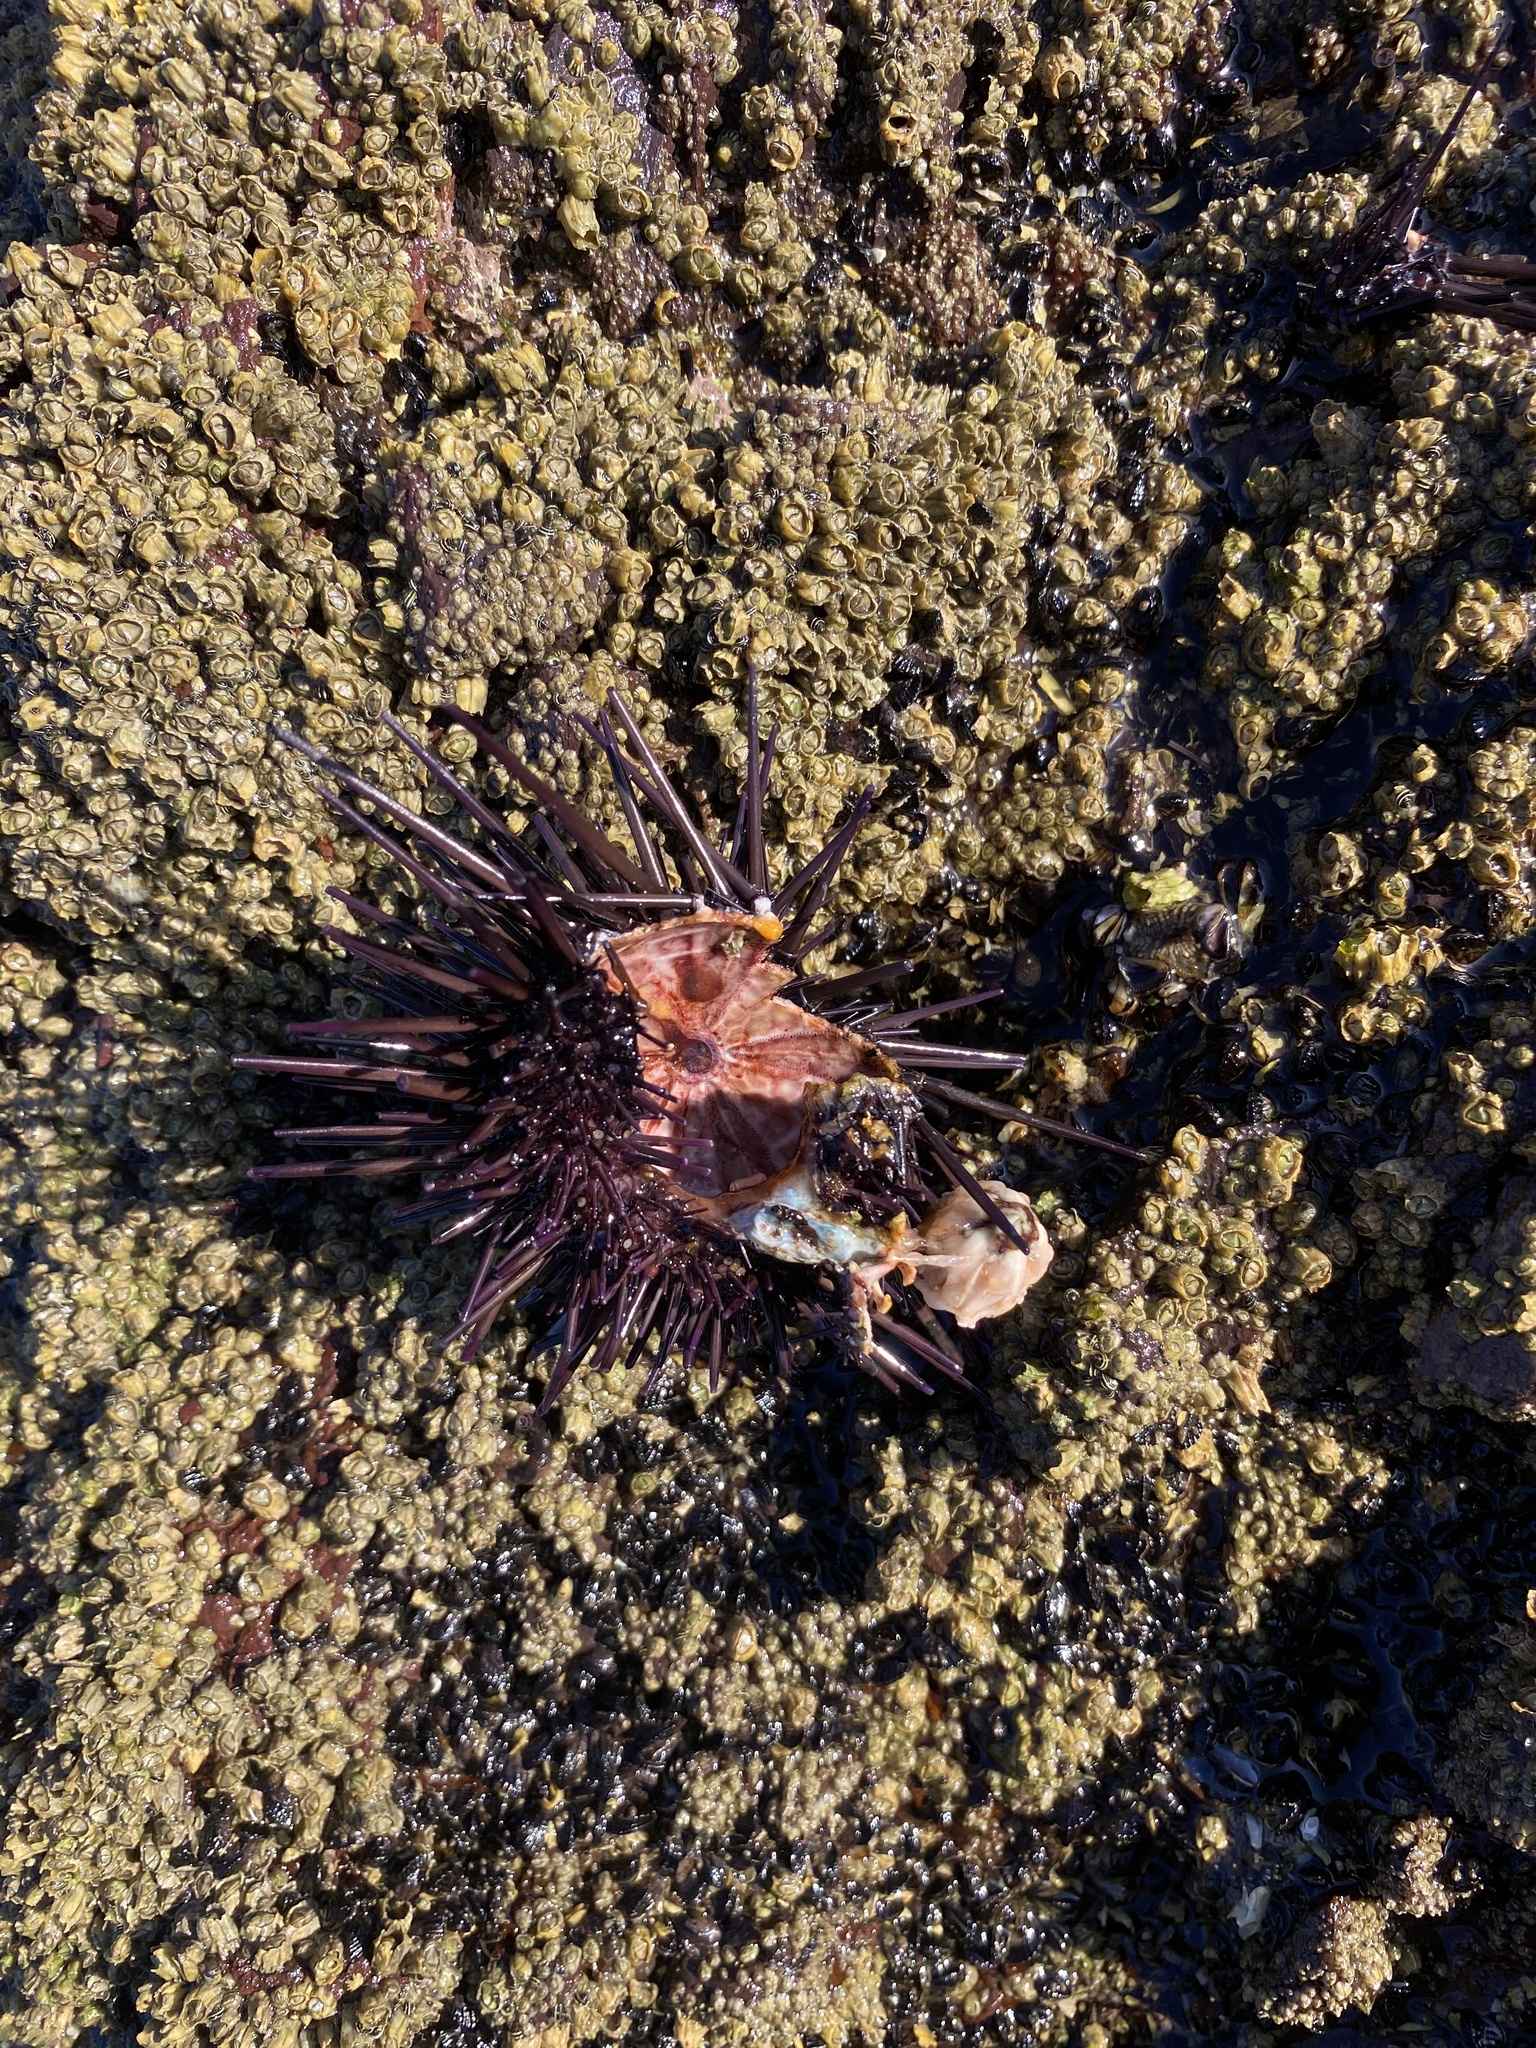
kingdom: Animalia
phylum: Echinodermata
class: Echinoidea
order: Camarodonta
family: Echinometridae
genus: Echinometra
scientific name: Echinometra vanbrunti
